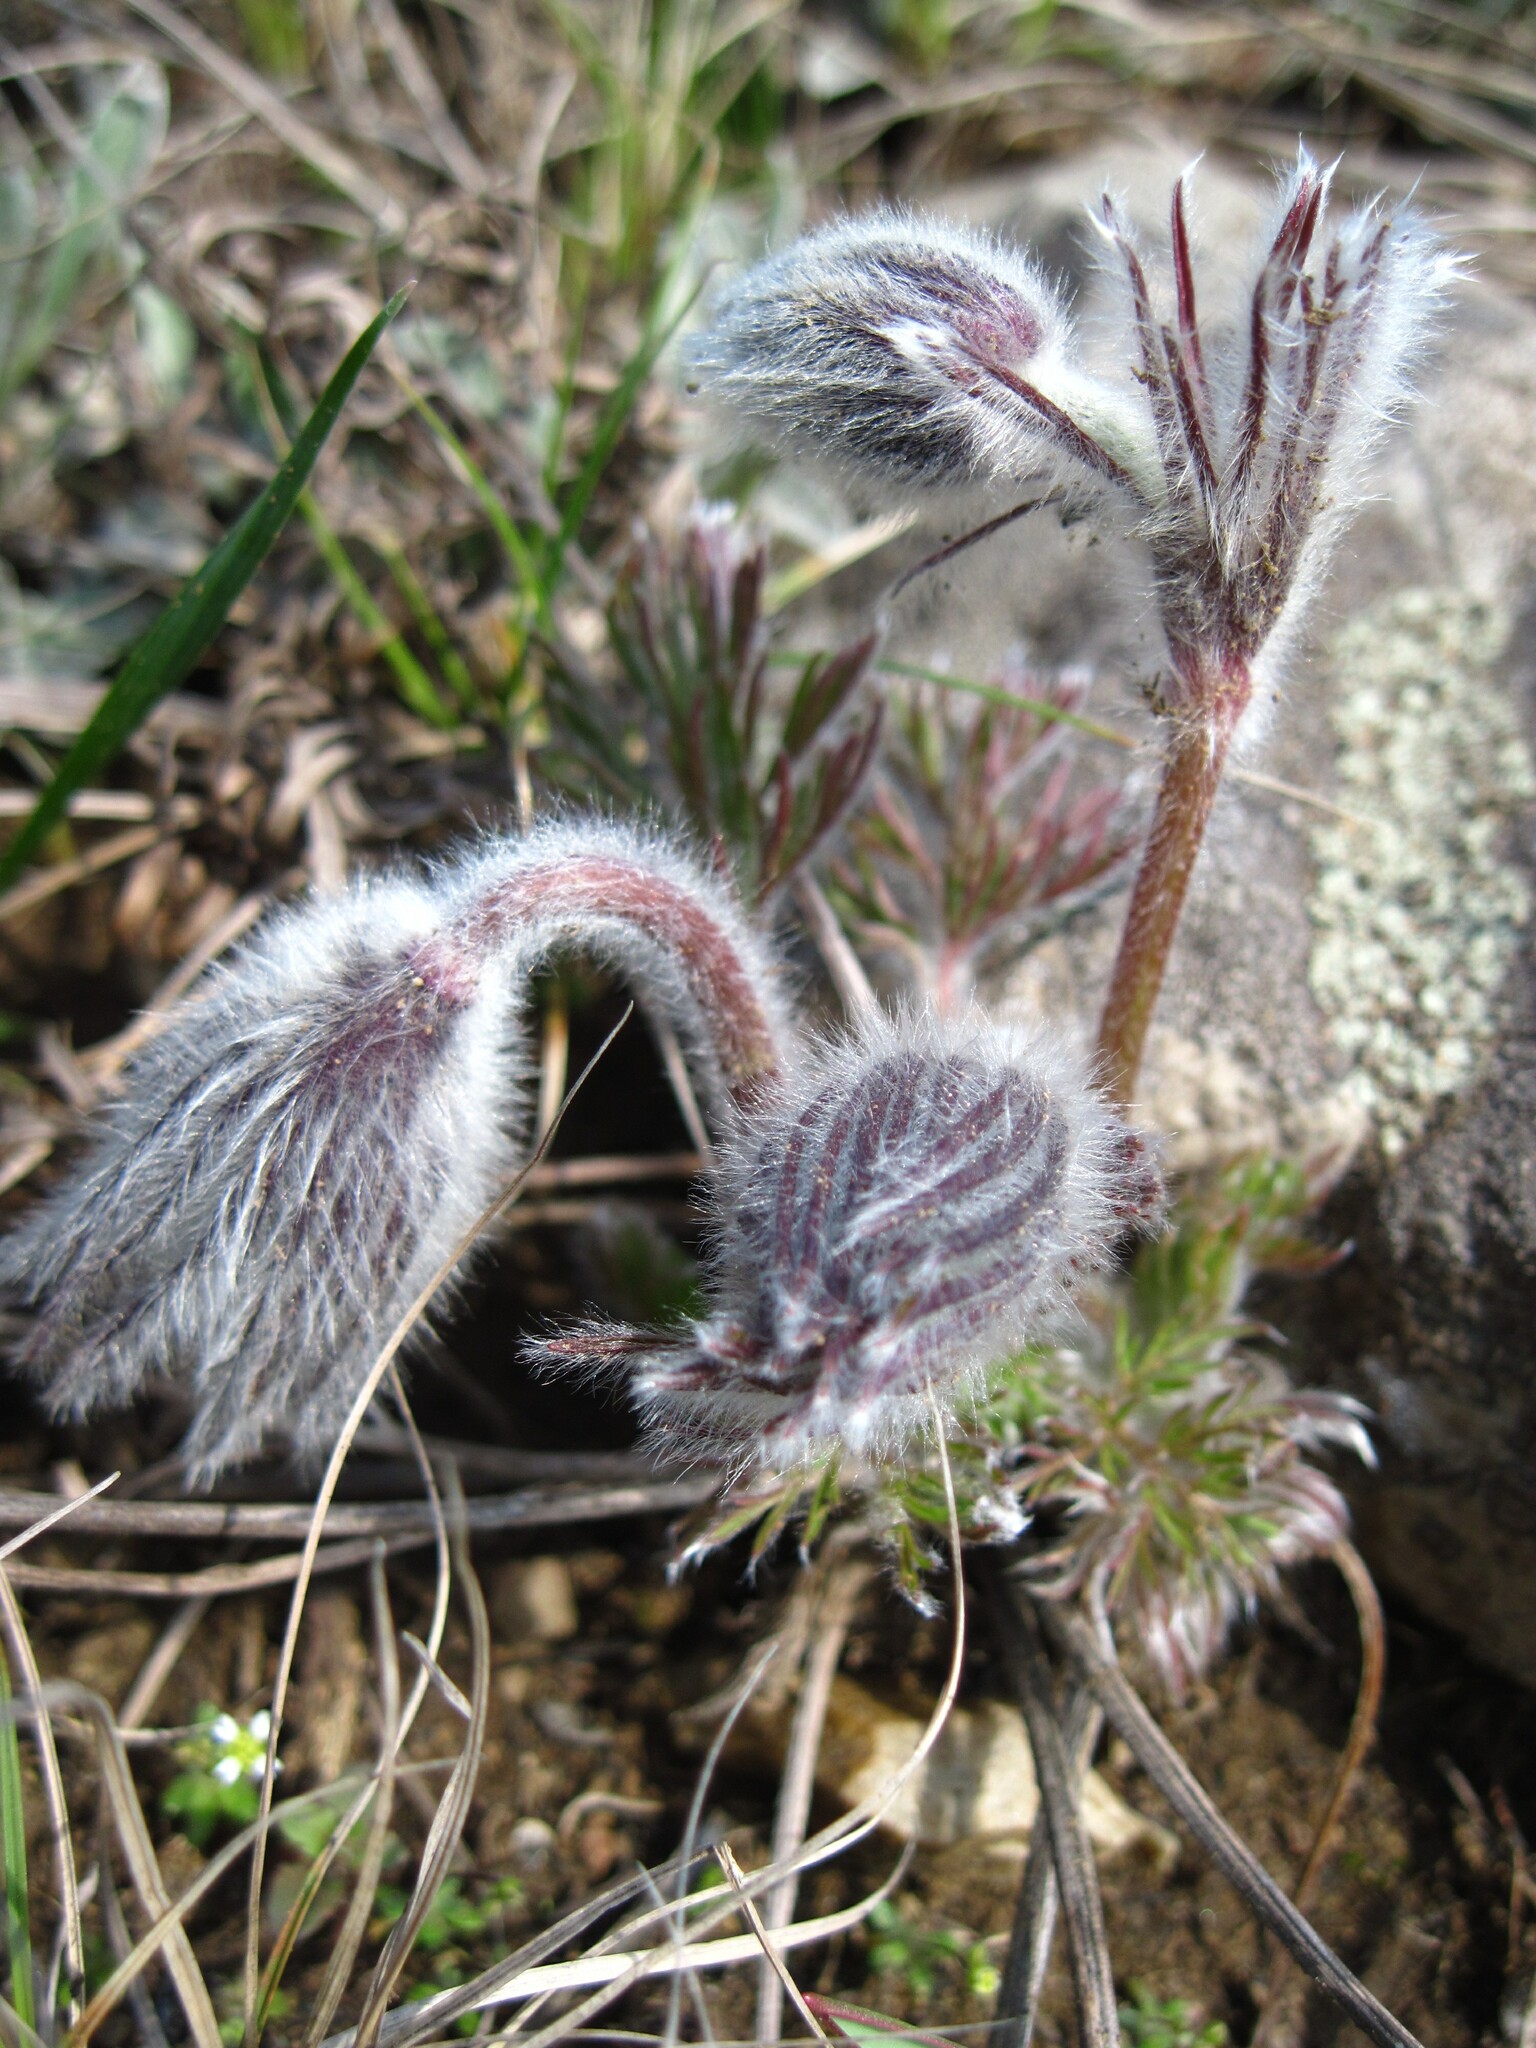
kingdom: Plantae
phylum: Tracheophyta
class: Magnoliopsida
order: Ranunculales
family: Ranunculaceae
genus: Pulsatilla
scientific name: Pulsatilla pratensis
